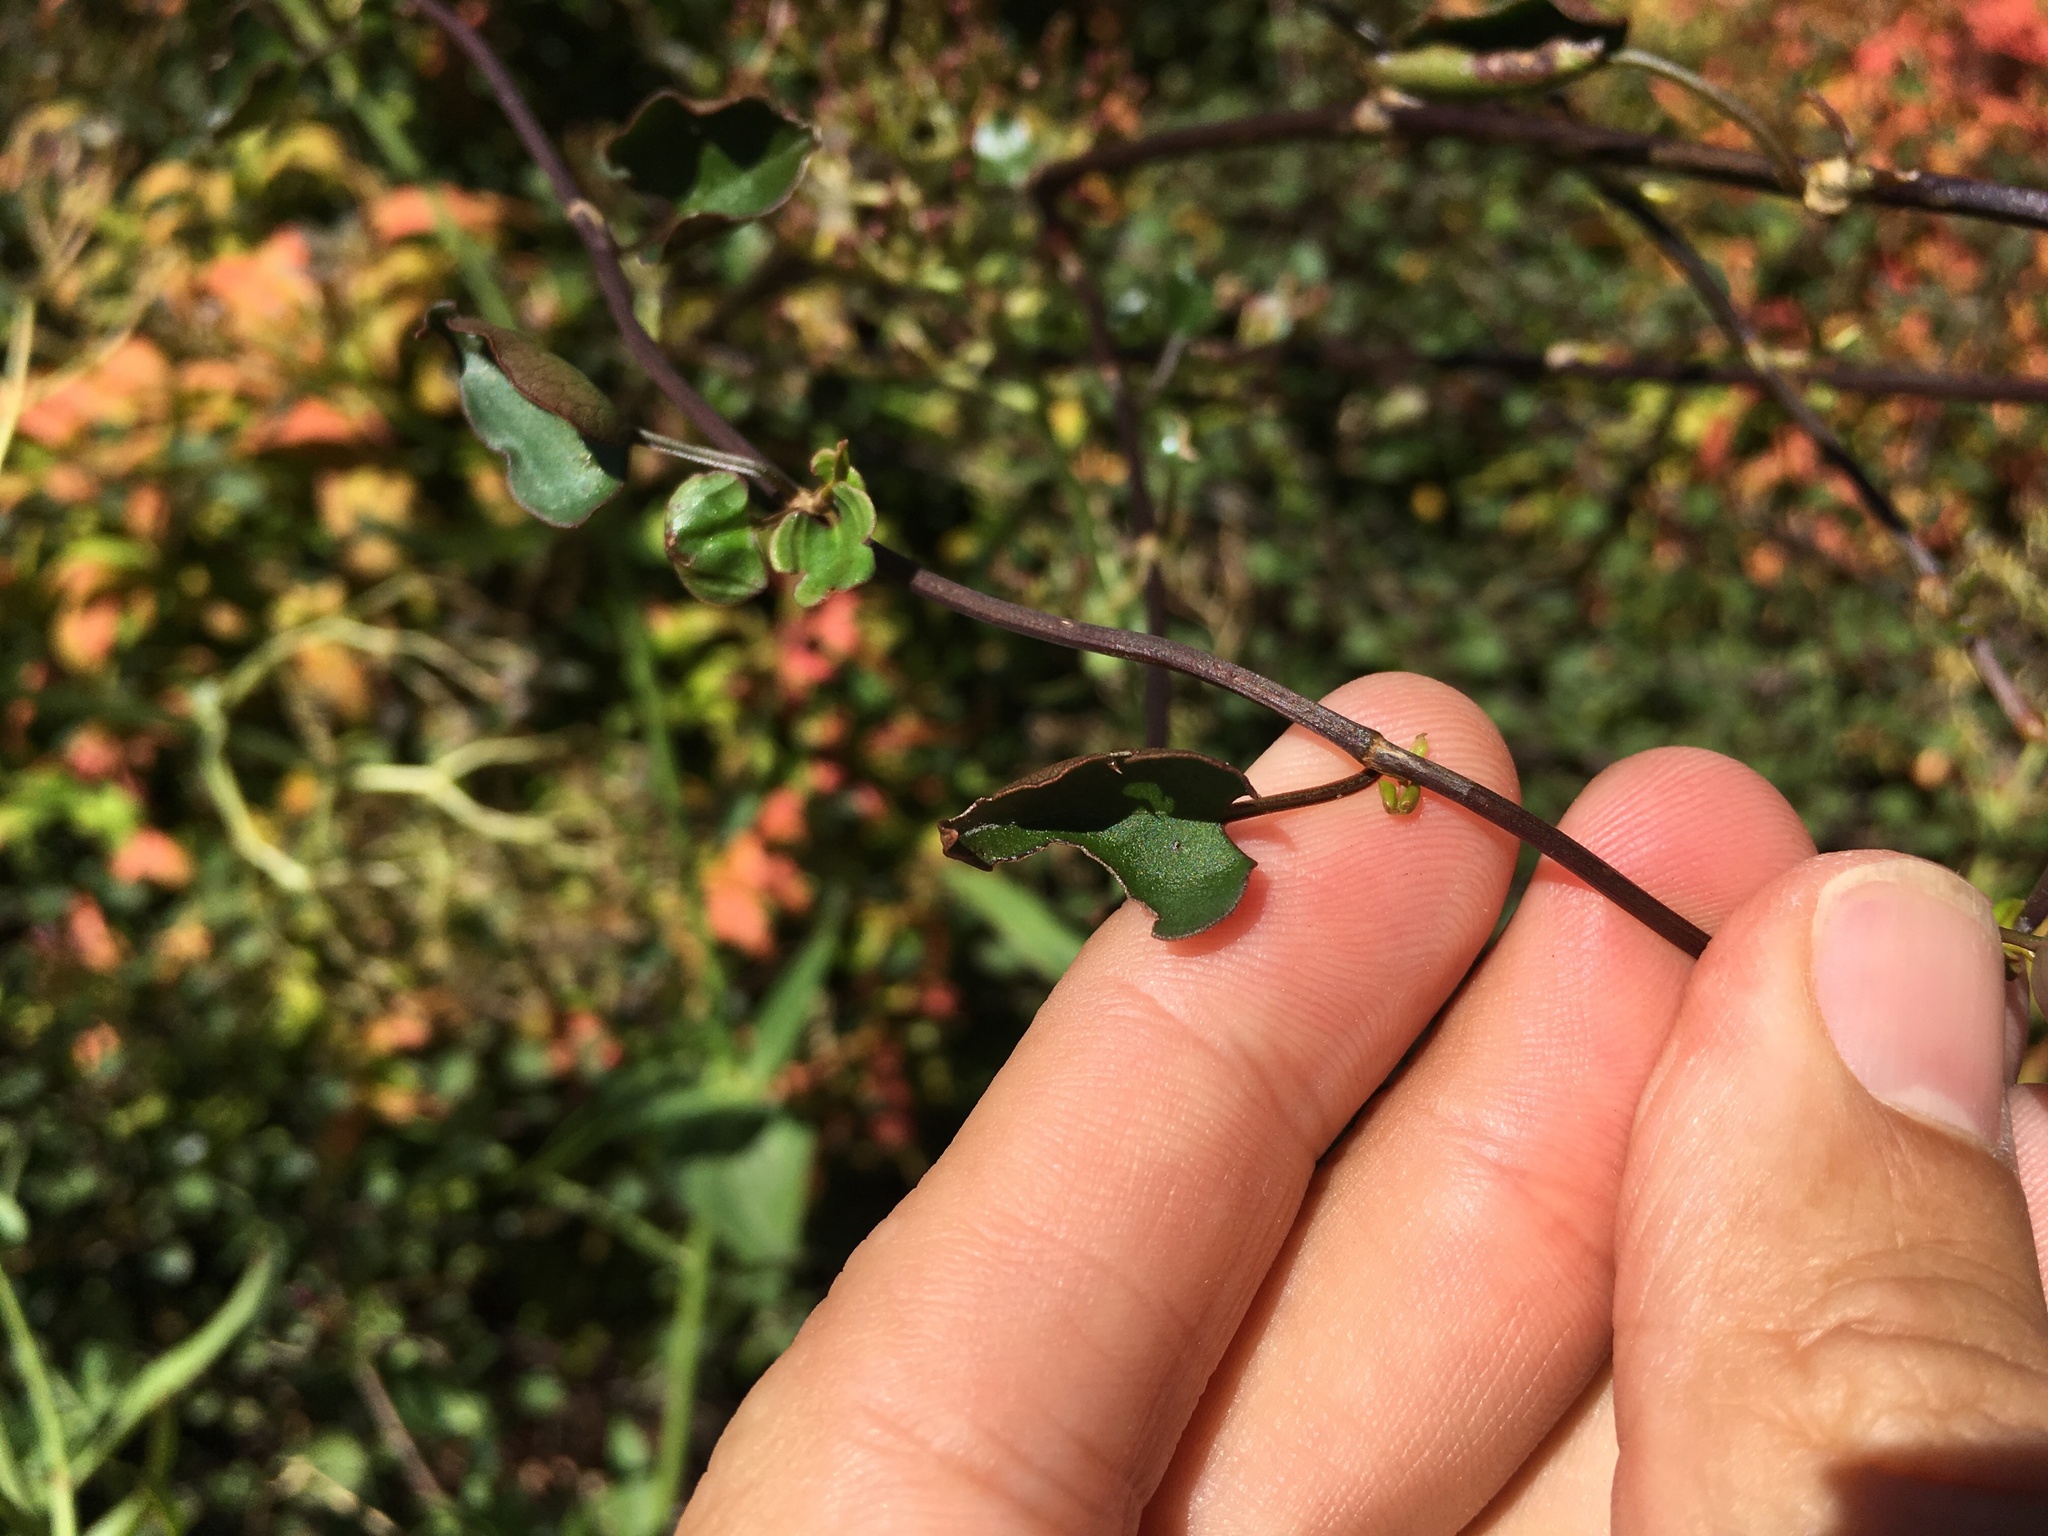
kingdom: Plantae
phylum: Tracheophyta
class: Magnoliopsida
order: Caryophyllales
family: Polygonaceae
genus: Muehlenbeckia
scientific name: Muehlenbeckia australis
